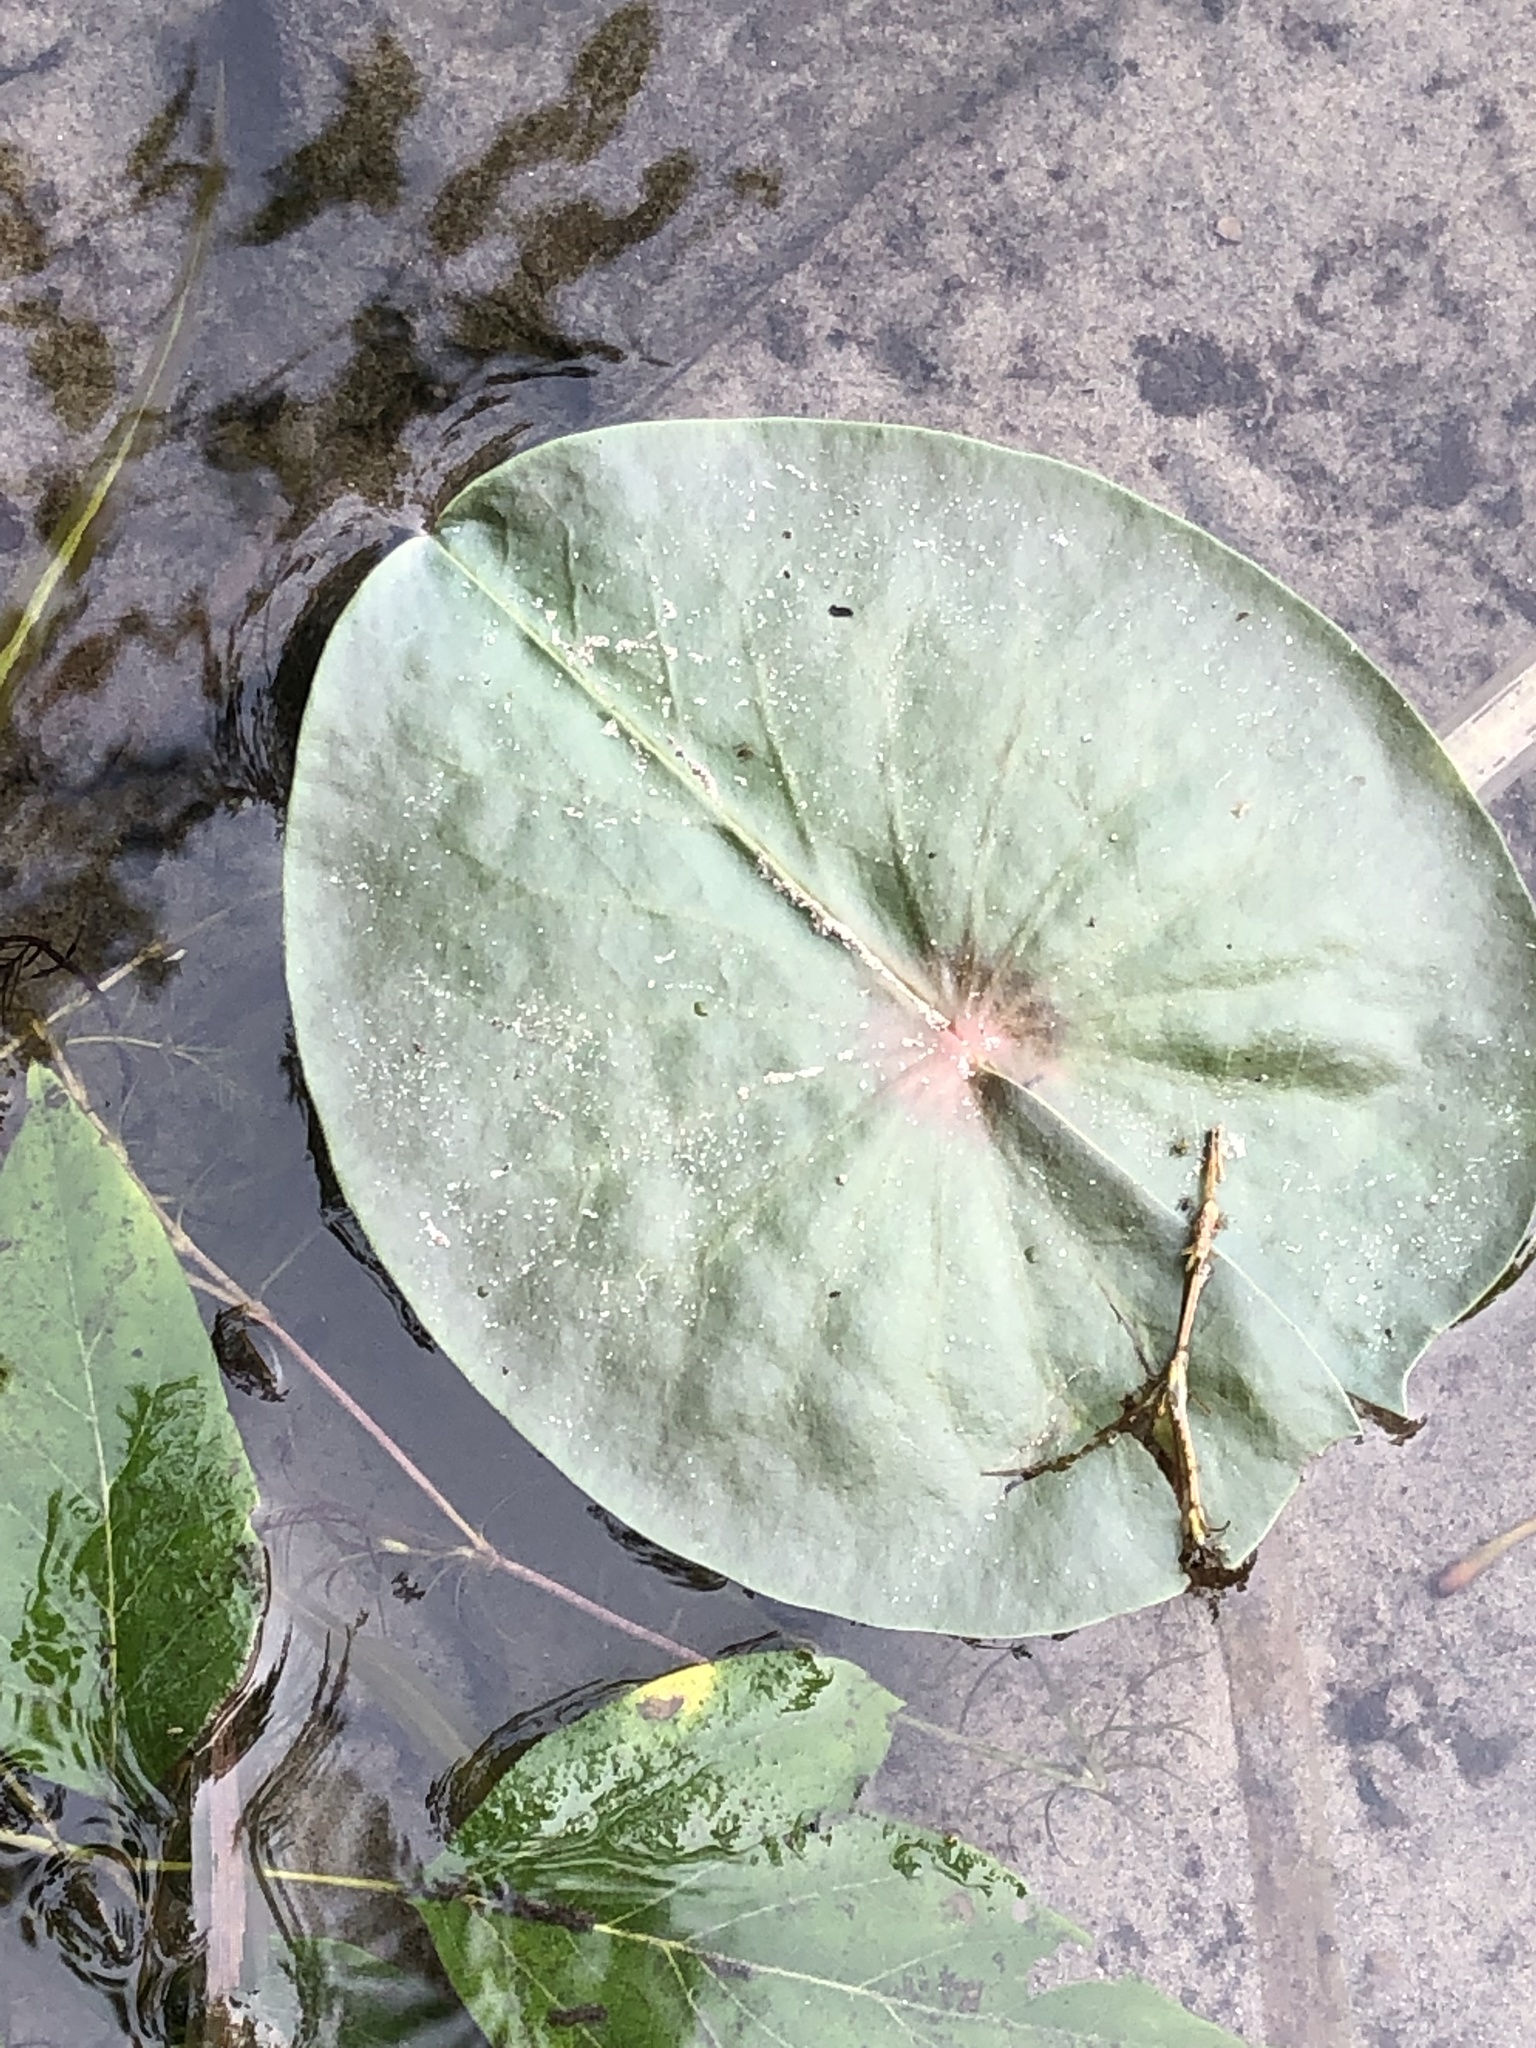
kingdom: Plantae
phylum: Tracheophyta
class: Magnoliopsida
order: Nymphaeales
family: Nymphaeaceae
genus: Nymphaea
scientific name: Nymphaea odorata
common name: Fragrant water-lily
